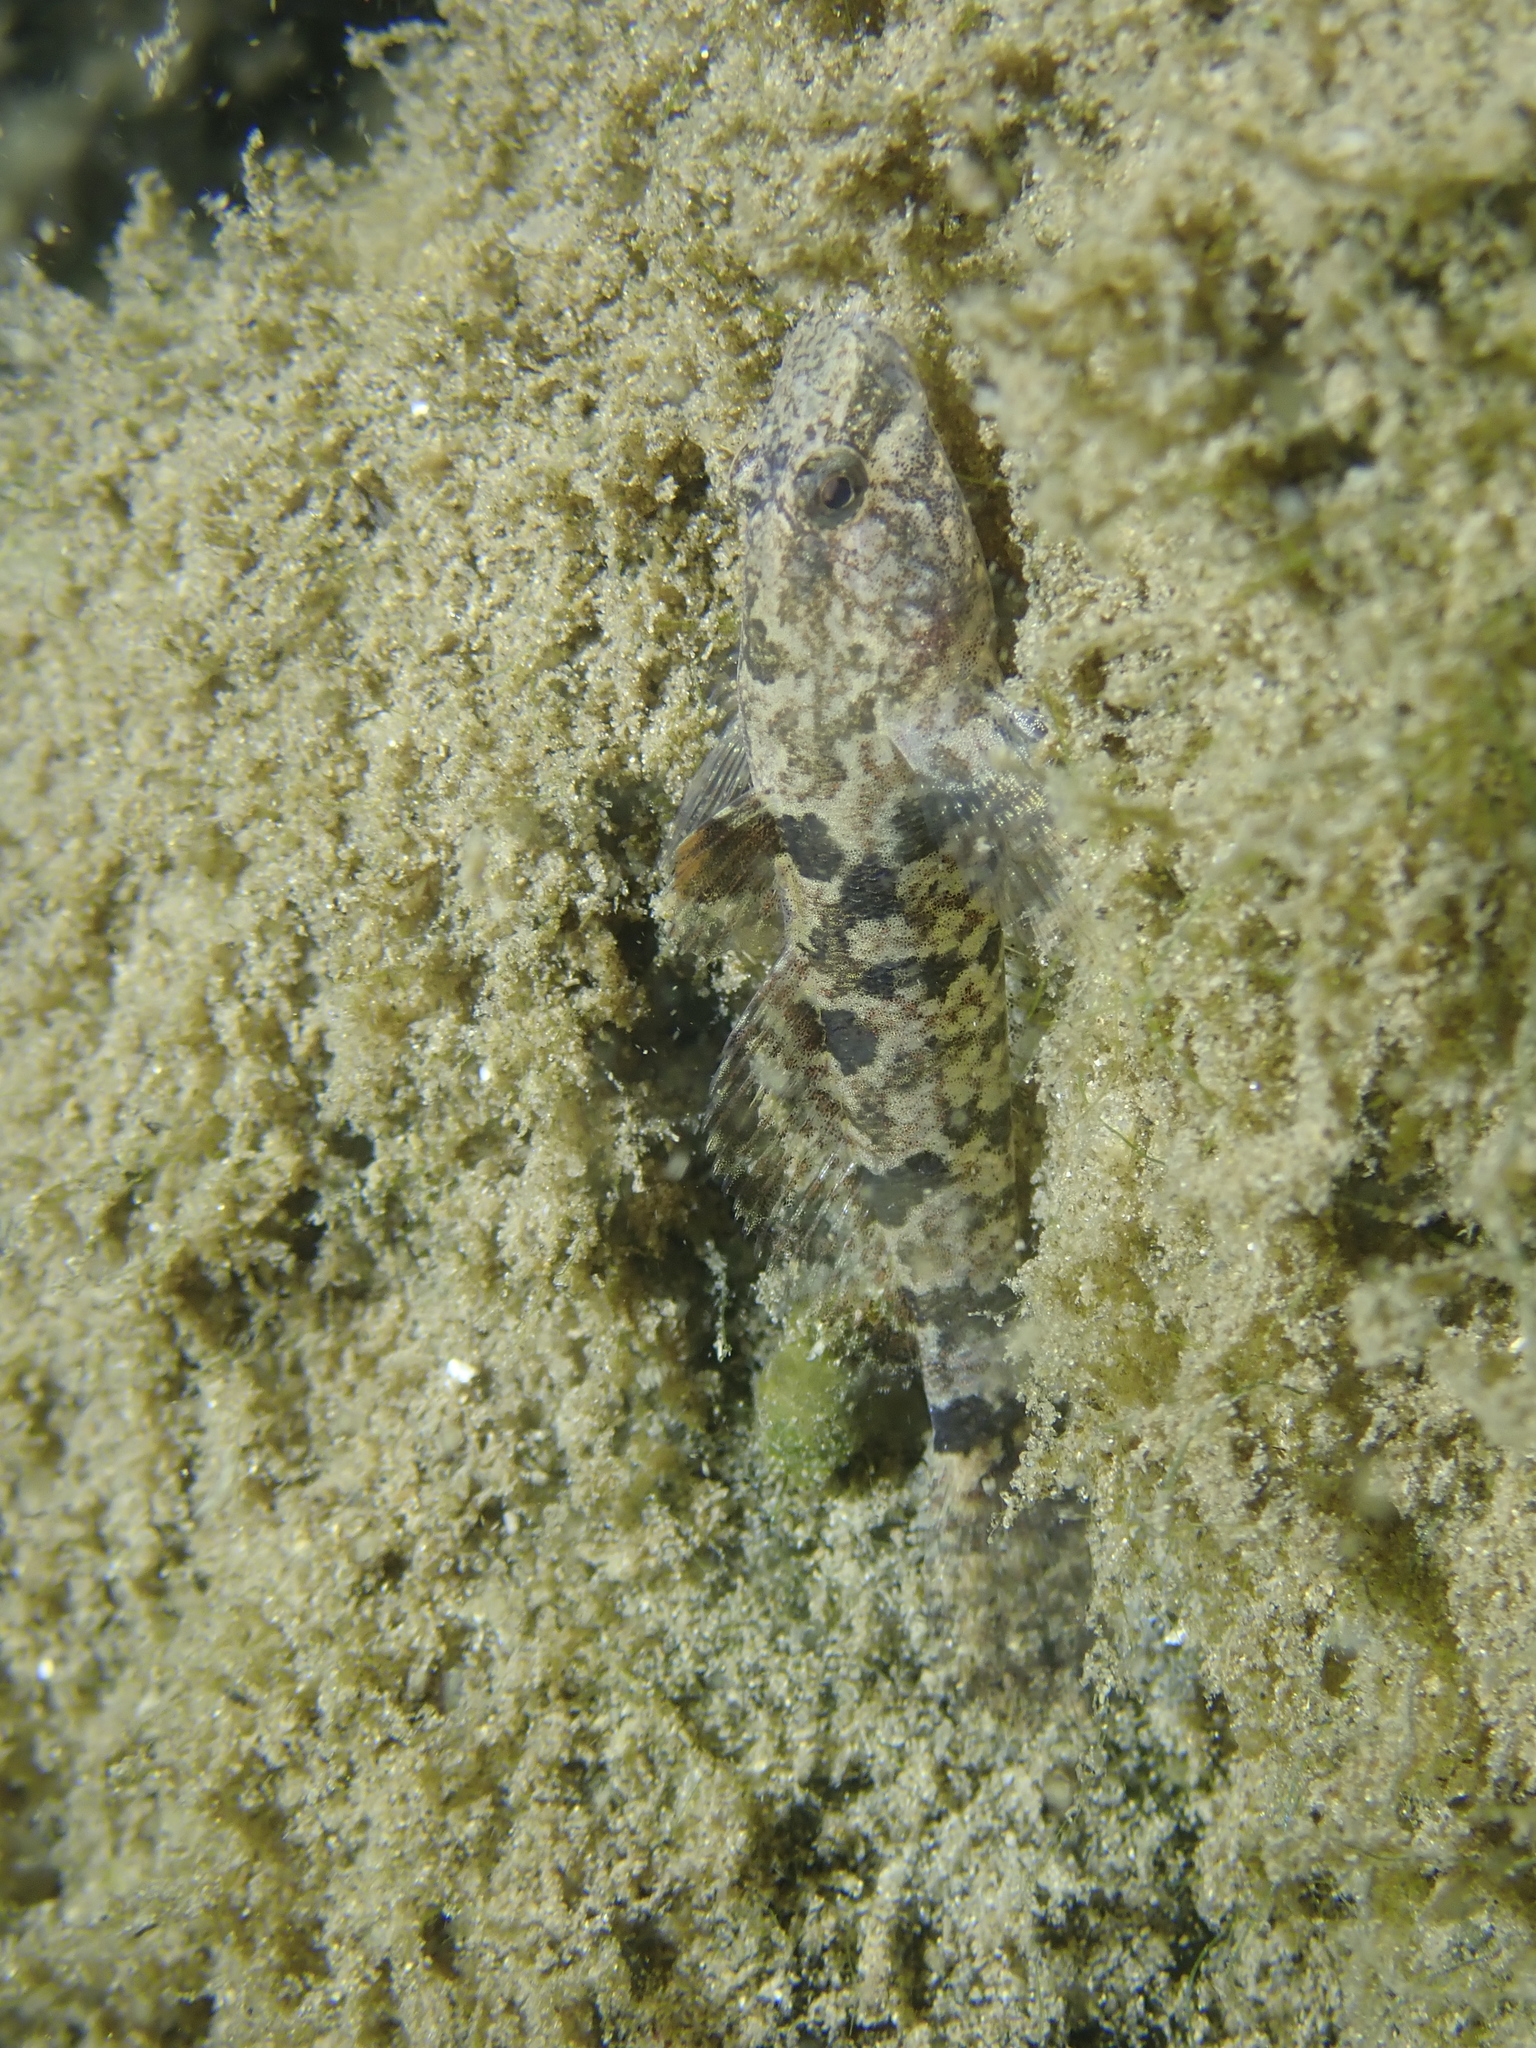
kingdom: Animalia
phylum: Chordata
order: Perciformes
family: Gobiidae
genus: Proterorhinus
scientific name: Proterorhinus semilunaris
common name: Western tubenose goby
